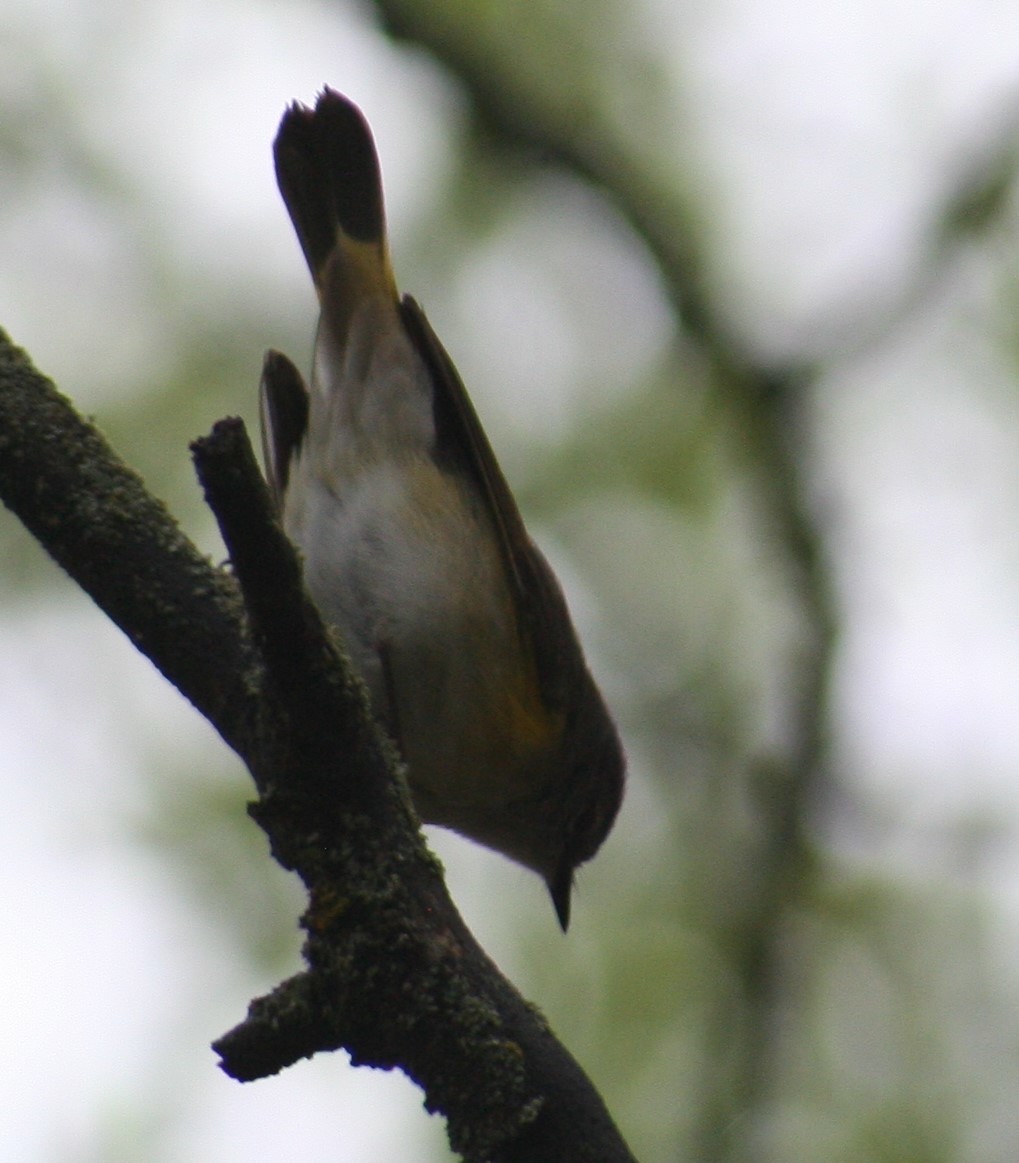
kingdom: Animalia
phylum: Chordata
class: Aves
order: Passeriformes
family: Parulidae
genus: Setophaga
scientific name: Setophaga ruticilla
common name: American redstart
